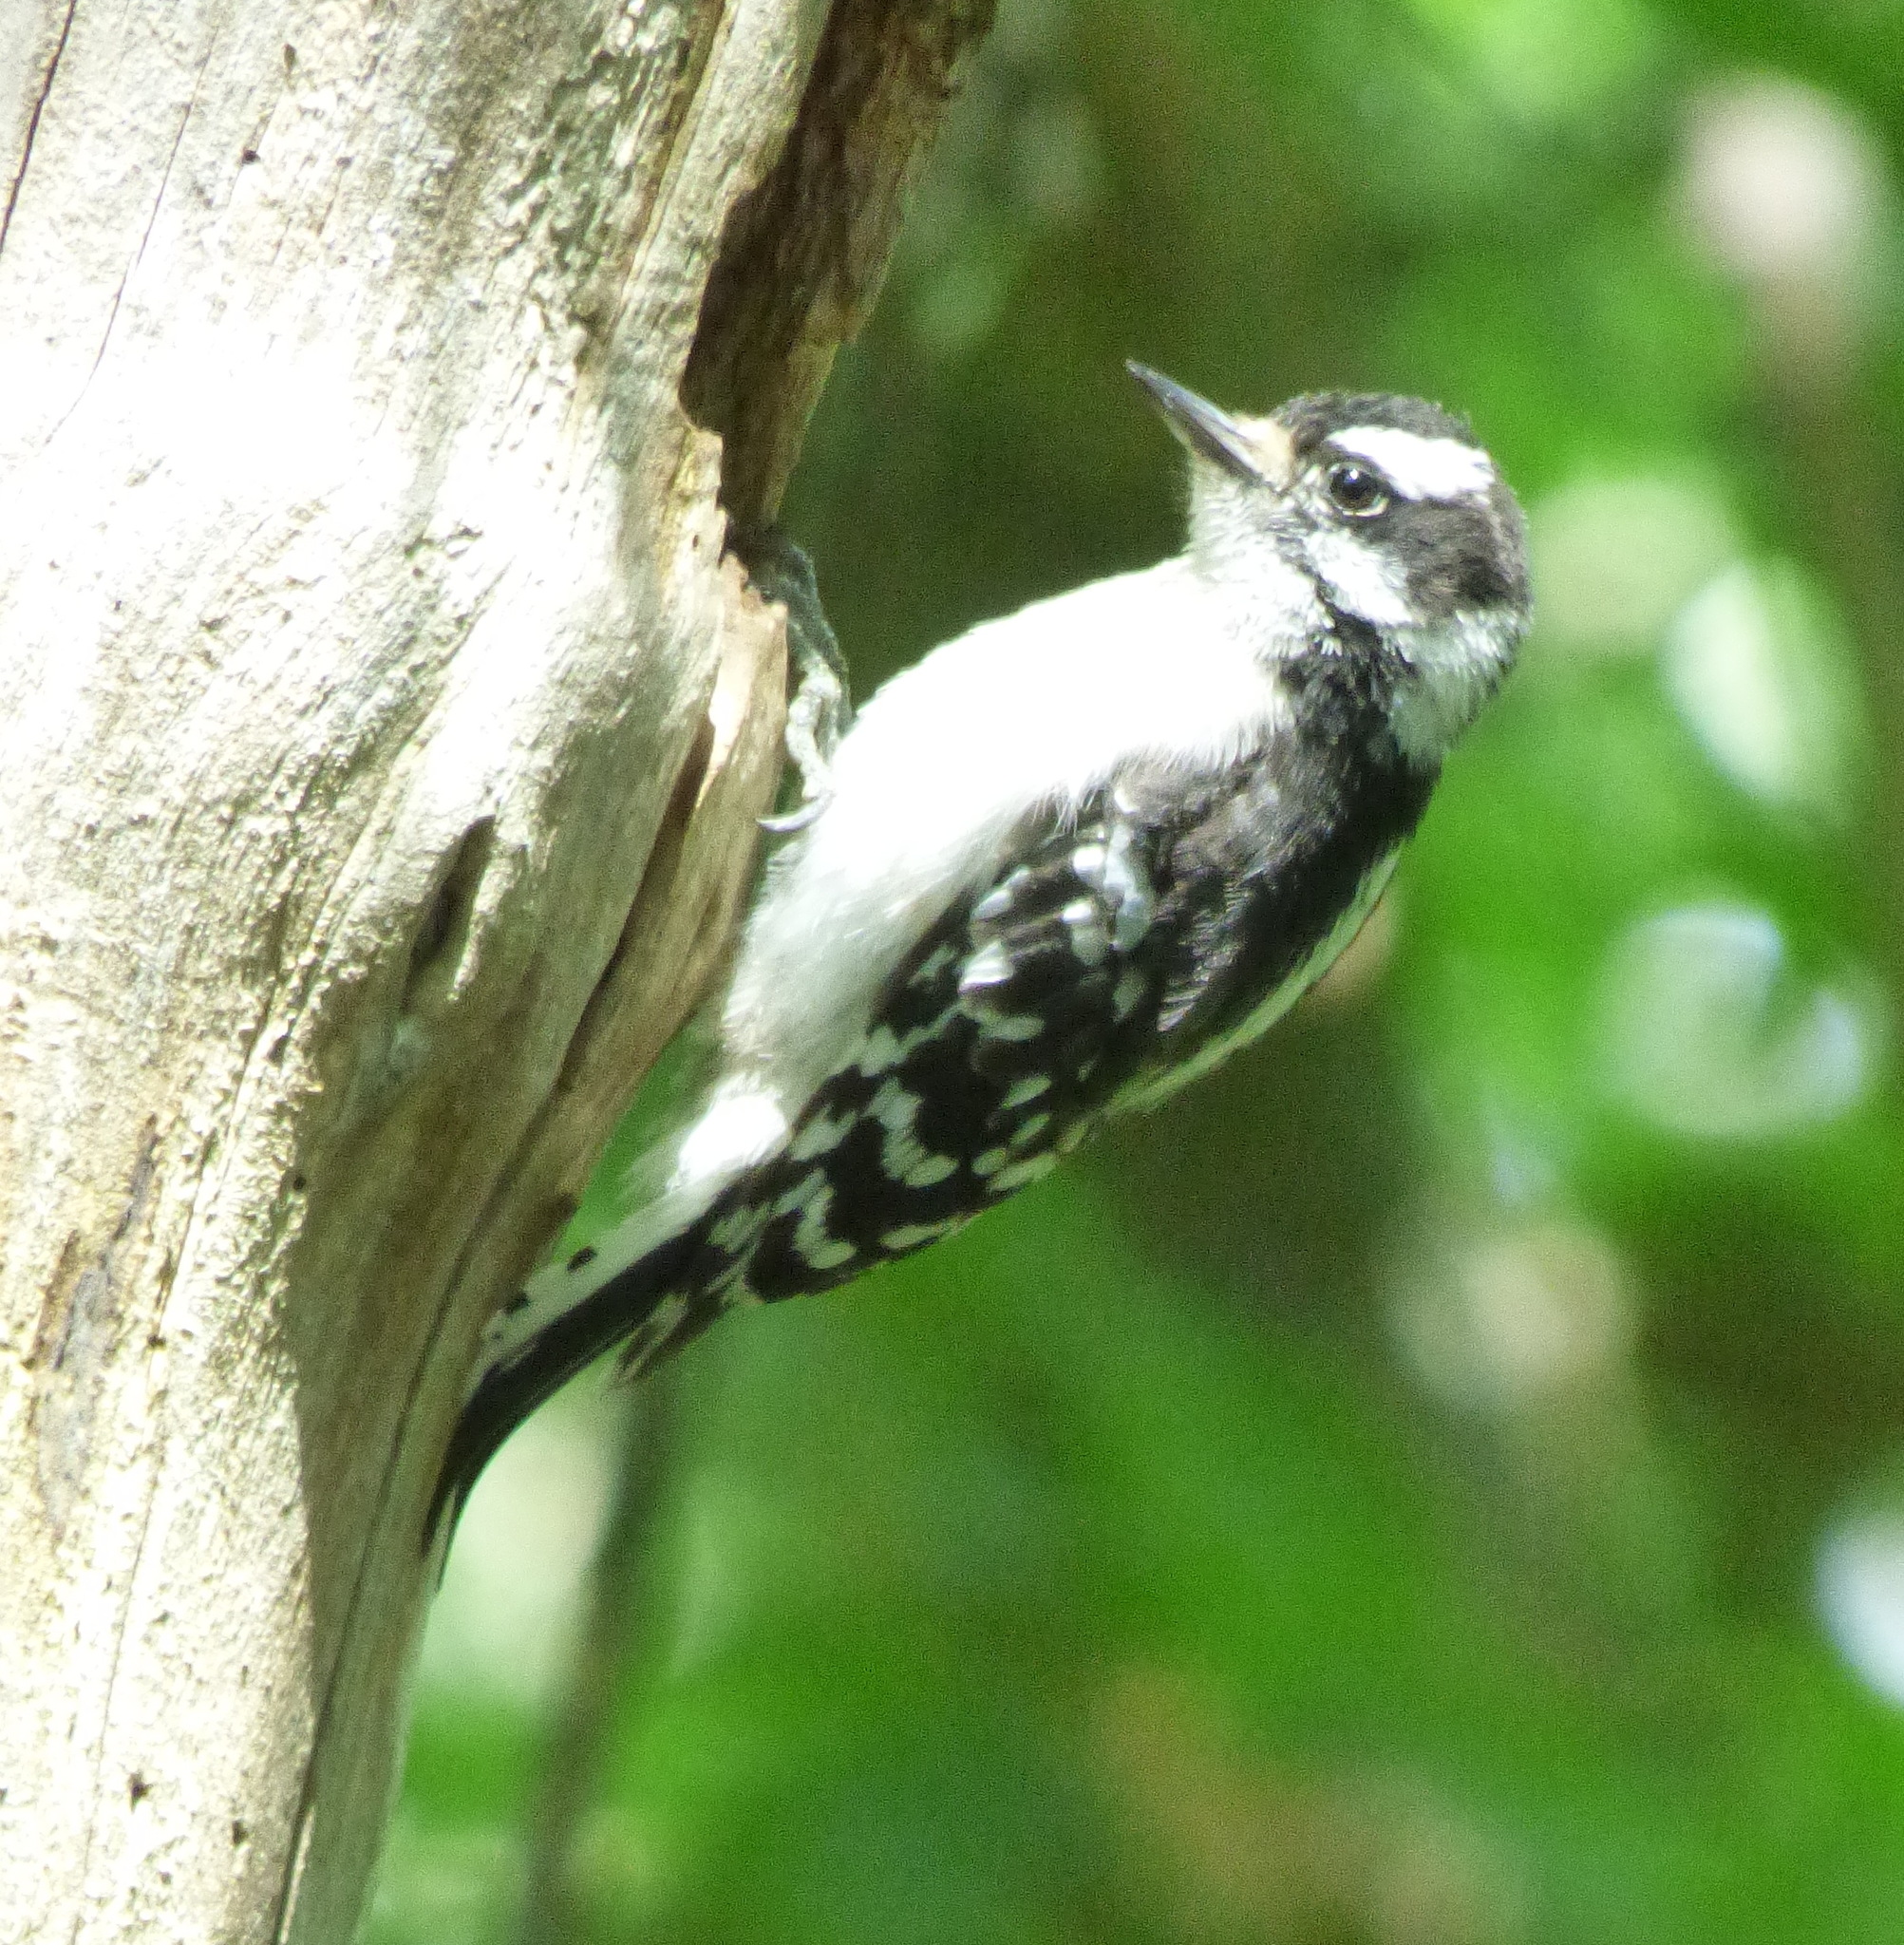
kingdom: Animalia
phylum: Chordata
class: Aves
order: Piciformes
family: Picidae
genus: Dryobates
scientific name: Dryobates pubescens
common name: Downy woodpecker
